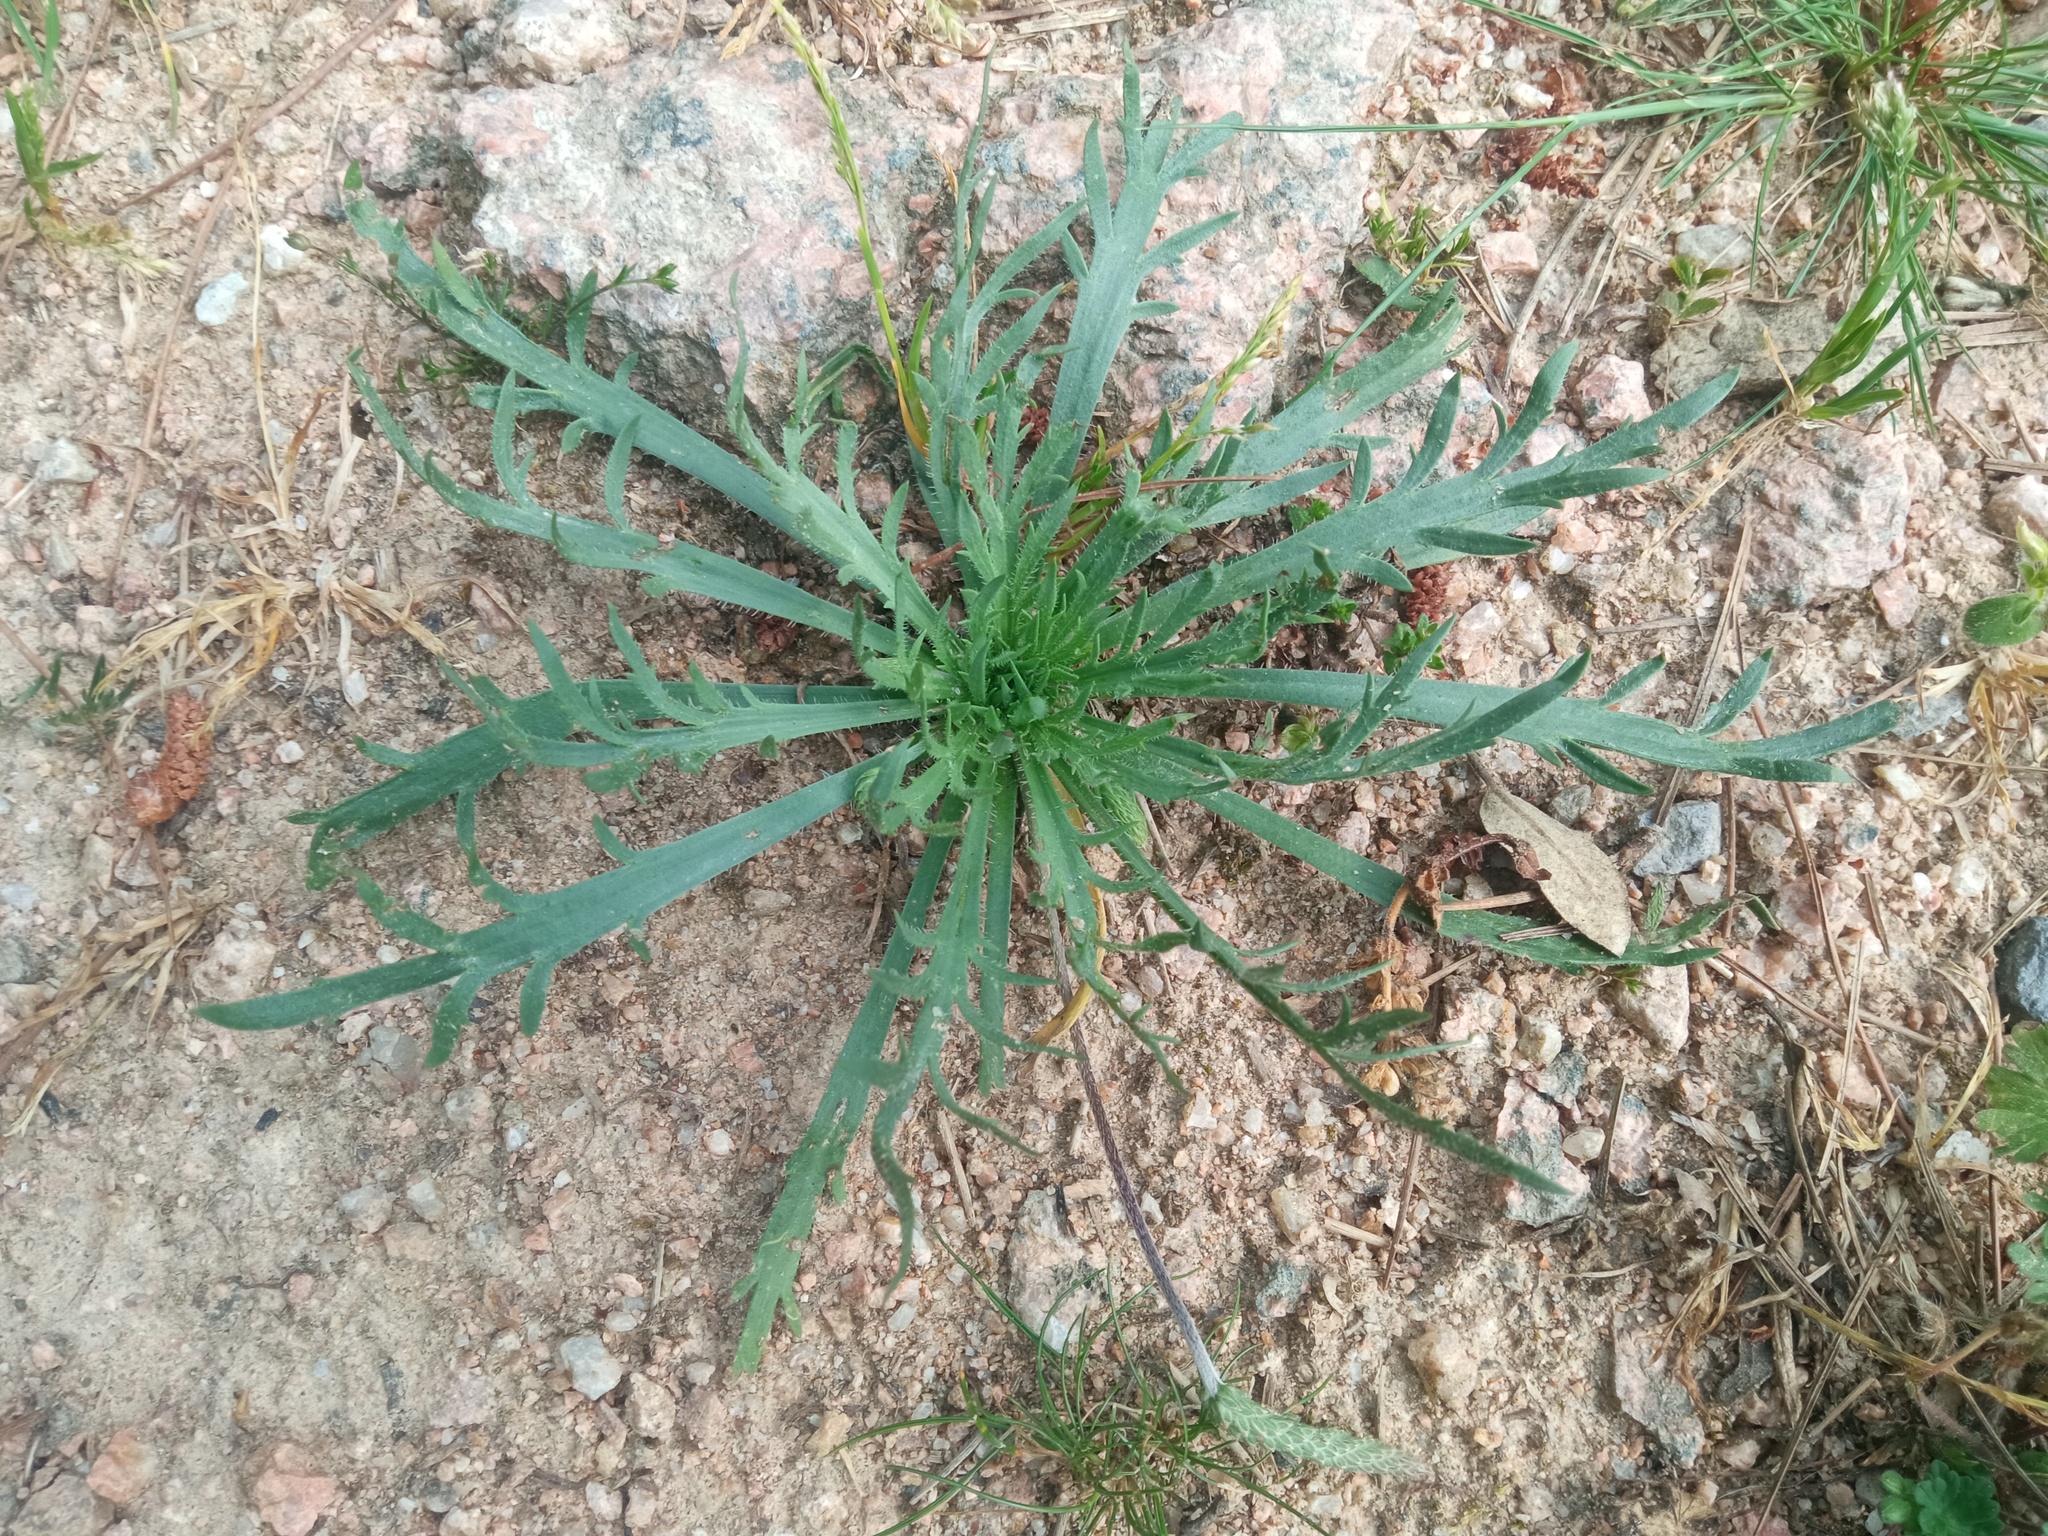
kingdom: Plantae
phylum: Tracheophyta
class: Magnoliopsida
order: Lamiales
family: Plantaginaceae
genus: Plantago
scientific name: Plantago coronopus
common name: Buck's-horn plantain
